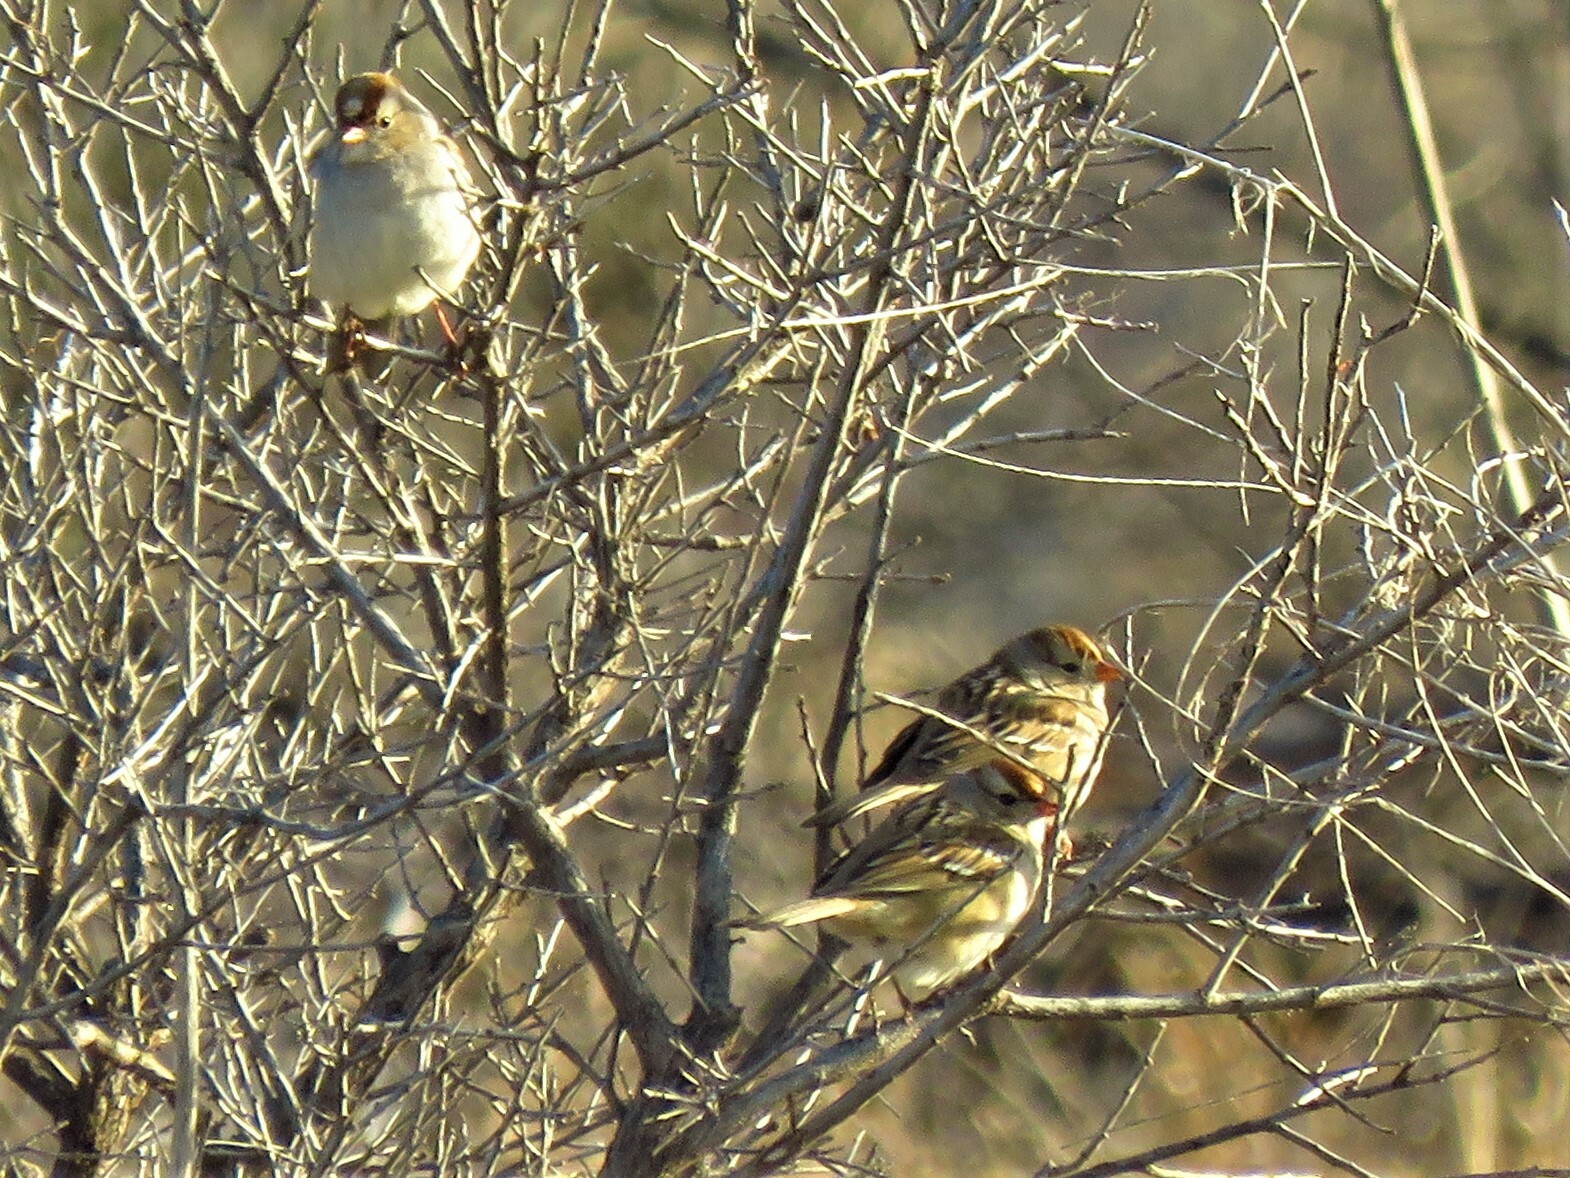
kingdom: Animalia
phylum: Chordata
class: Aves
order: Passeriformes
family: Passerellidae
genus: Zonotrichia
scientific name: Zonotrichia leucophrys
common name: White-crowned sparrow
